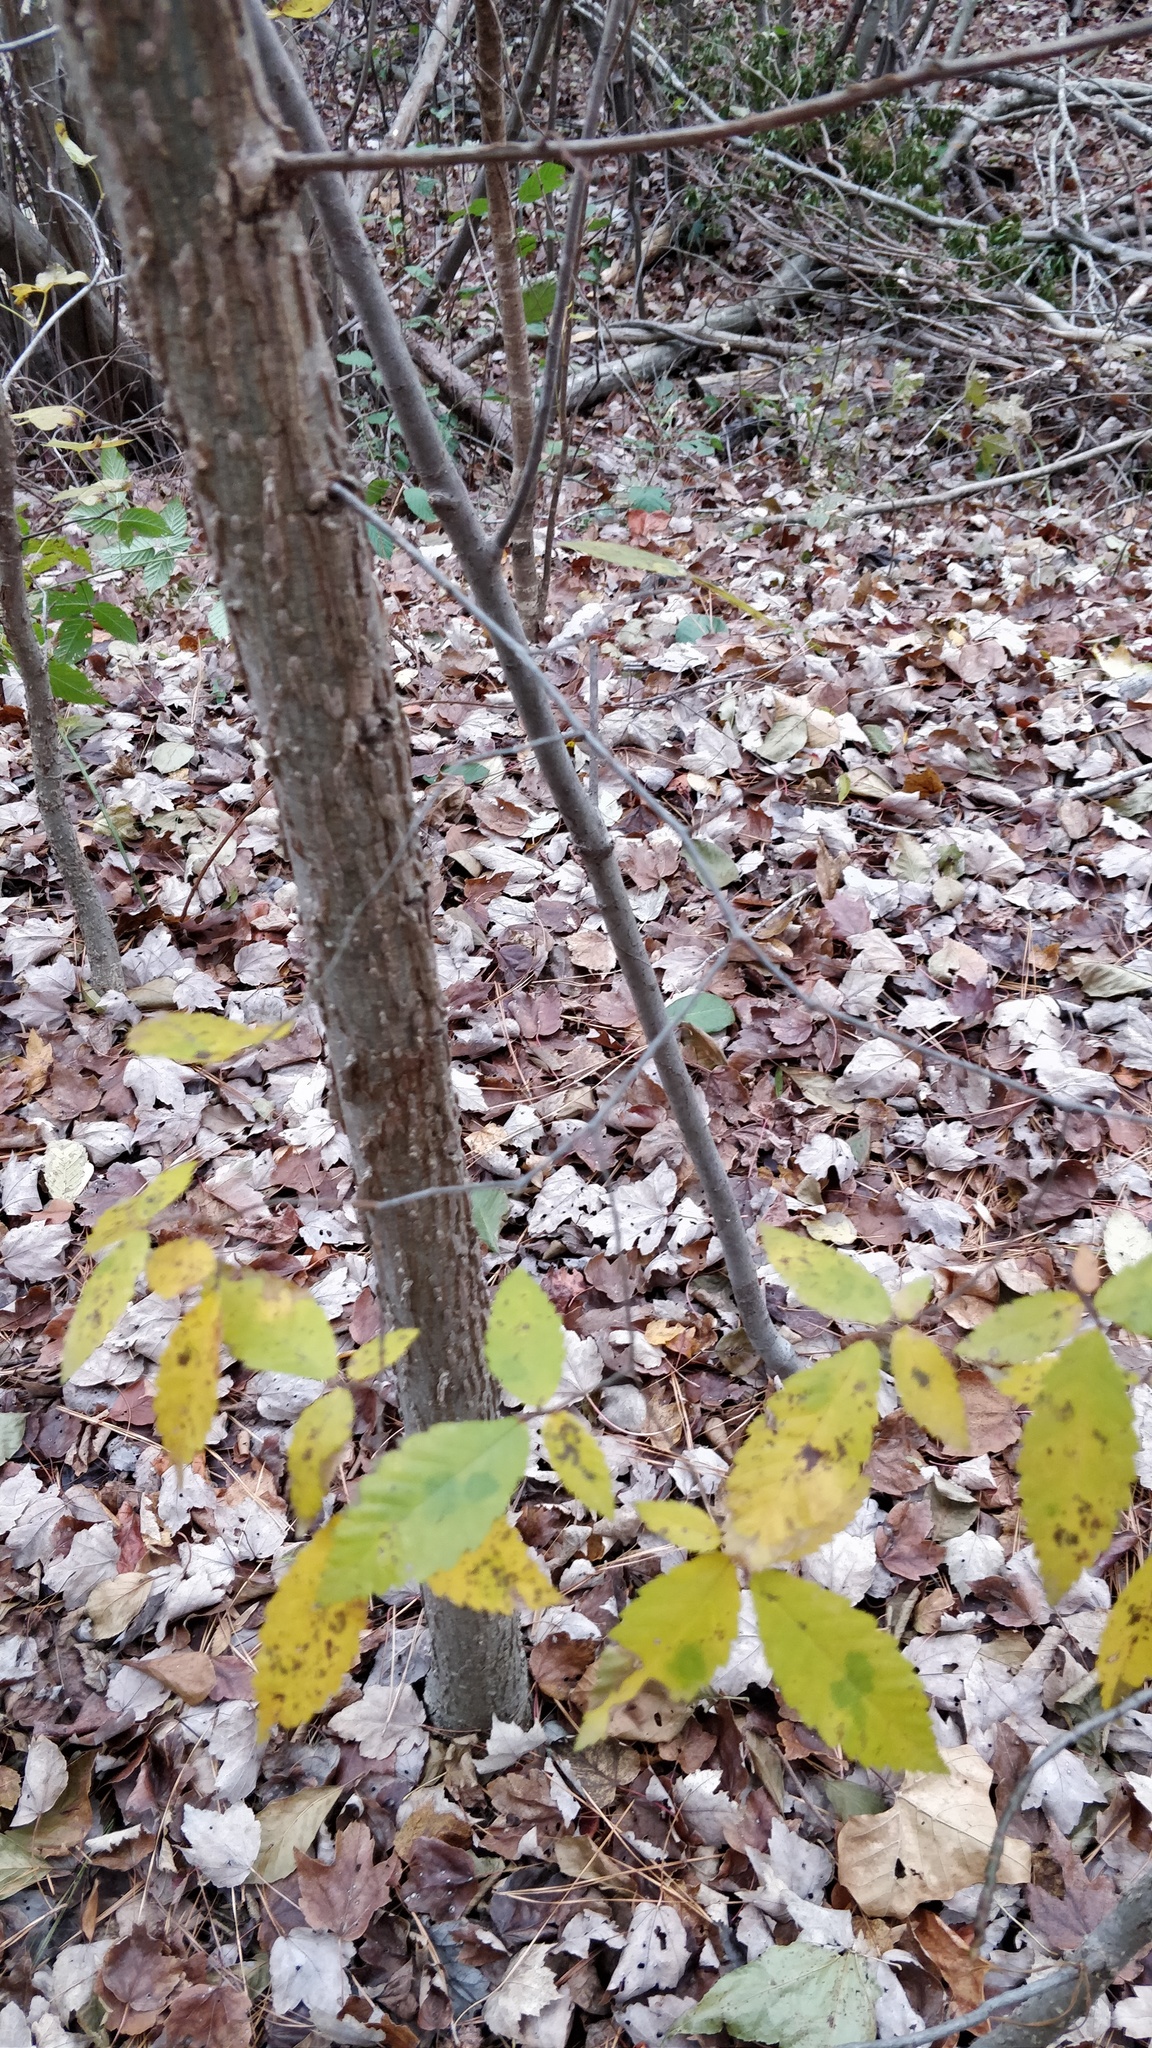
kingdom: Plantae
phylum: Tracheophyta
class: Magnoliopsida
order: Rosales
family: Ulmaceae
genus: Ulmus
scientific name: Ulmus alata
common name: Winged elm
